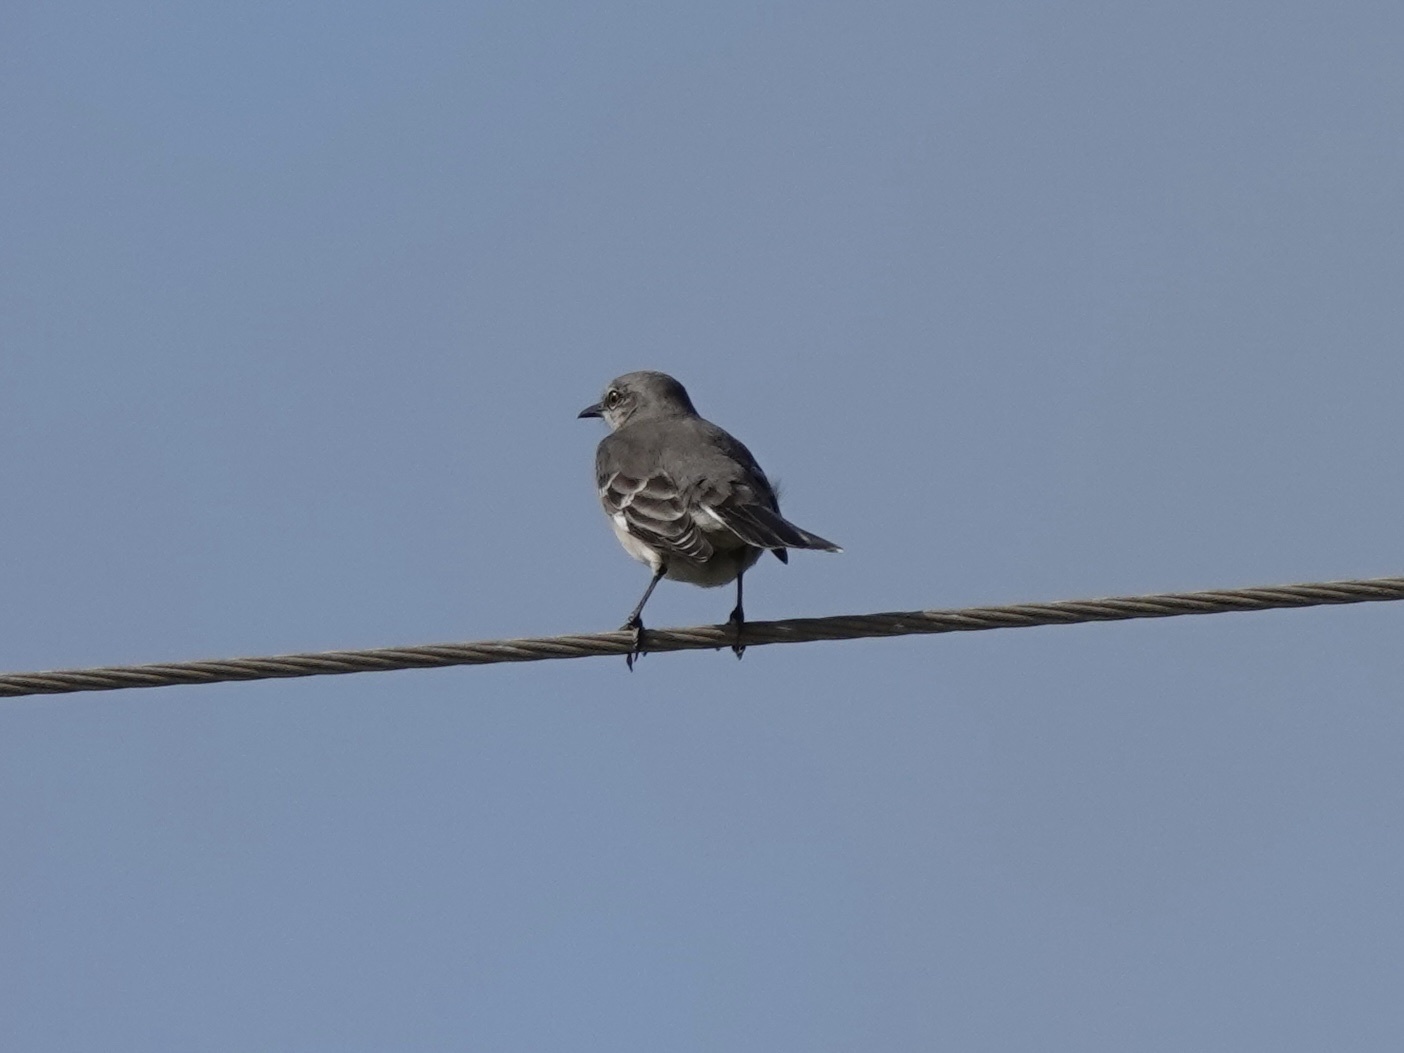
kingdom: Animalia
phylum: Chordata
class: Aves
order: Passeriformes
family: Mimidae
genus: Mimus
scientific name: Mimus polyglottos
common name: Northern mockingbird
